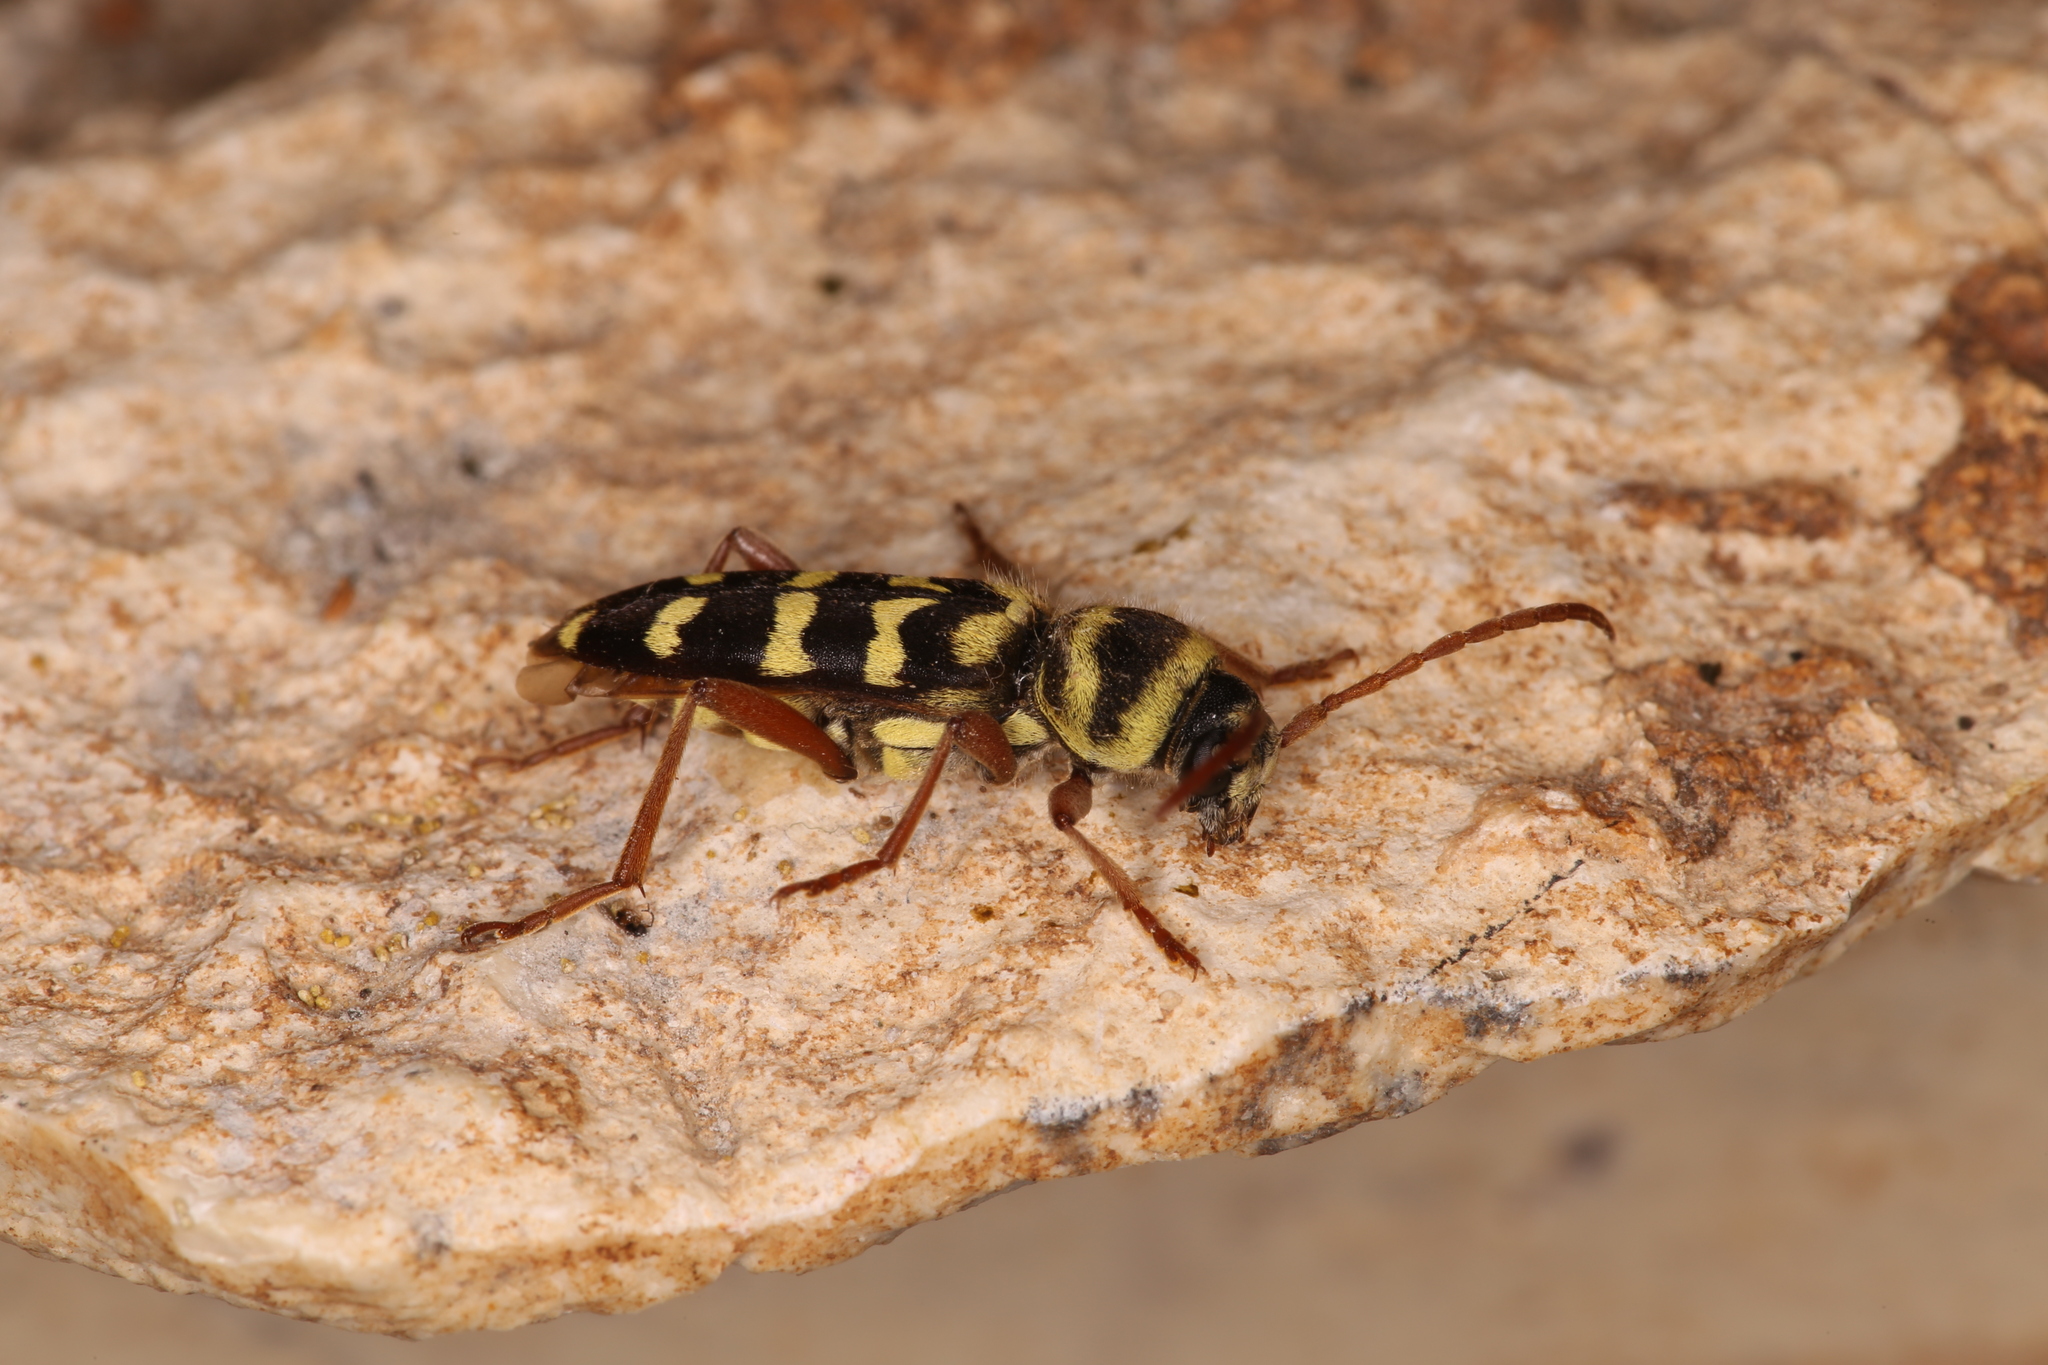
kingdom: Animalia
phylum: Arthropoda
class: Insecta
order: Coleoptera
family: Cerambycidae
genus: Plagionotus
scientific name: Plagionotus floralis
